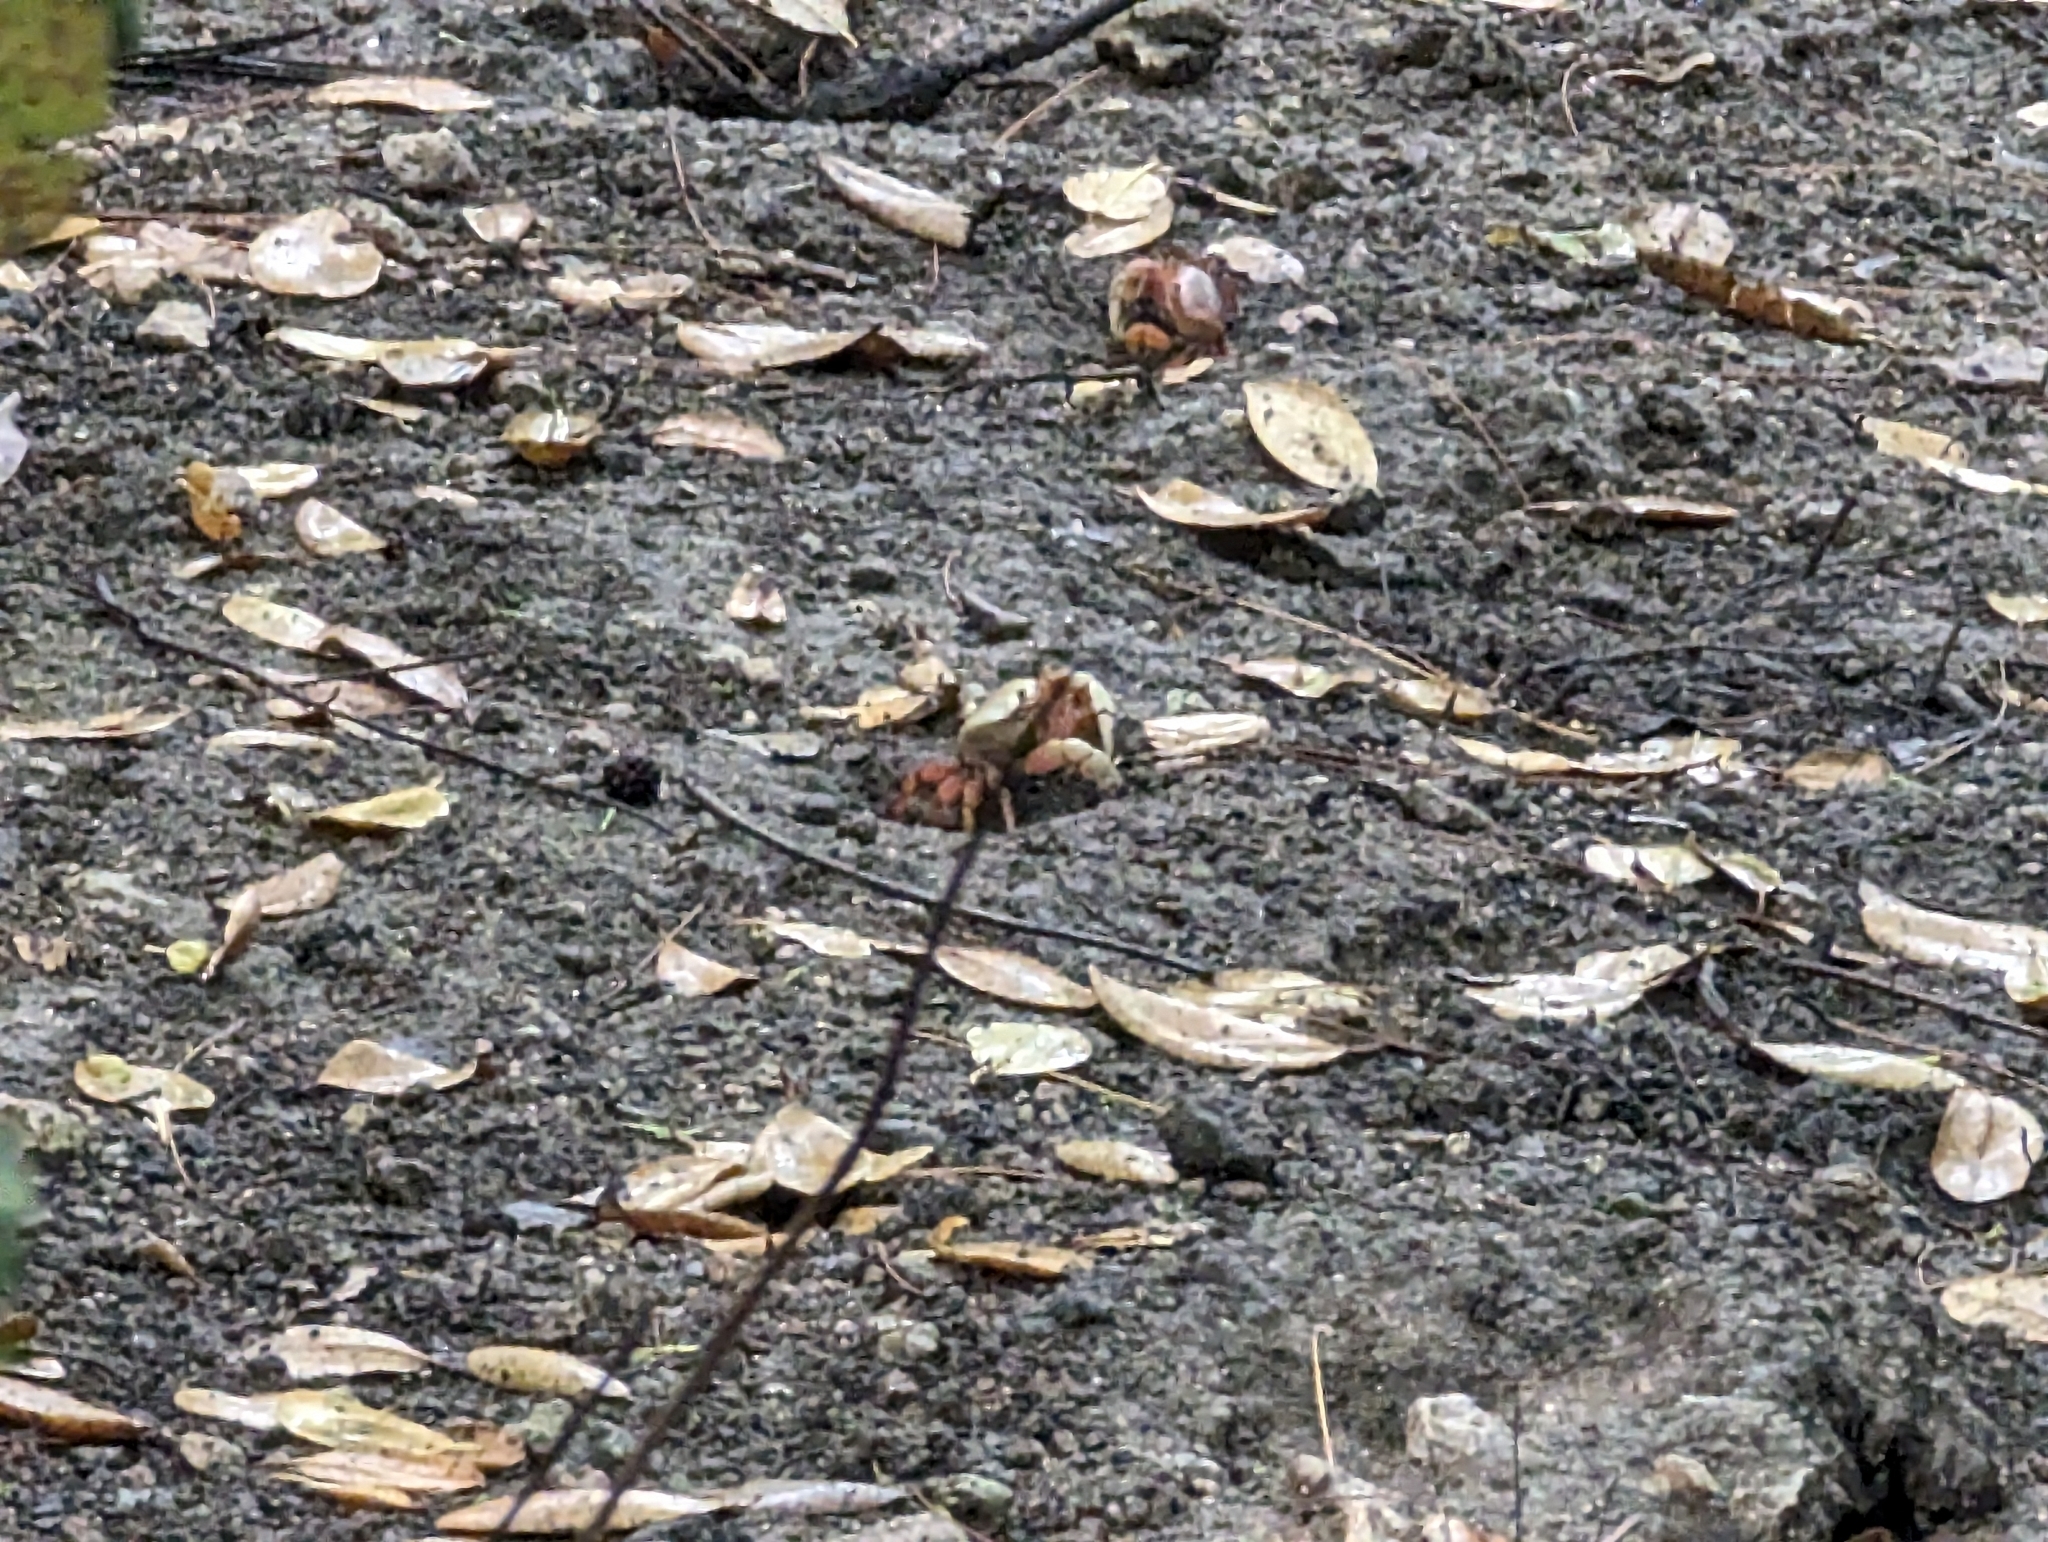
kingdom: Animalia
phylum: Arthropoda
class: Malacostraca
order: Decapoda
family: Gecarcinidae
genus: Cardisoma
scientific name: Cardisoma guanhumi
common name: Great land crab
